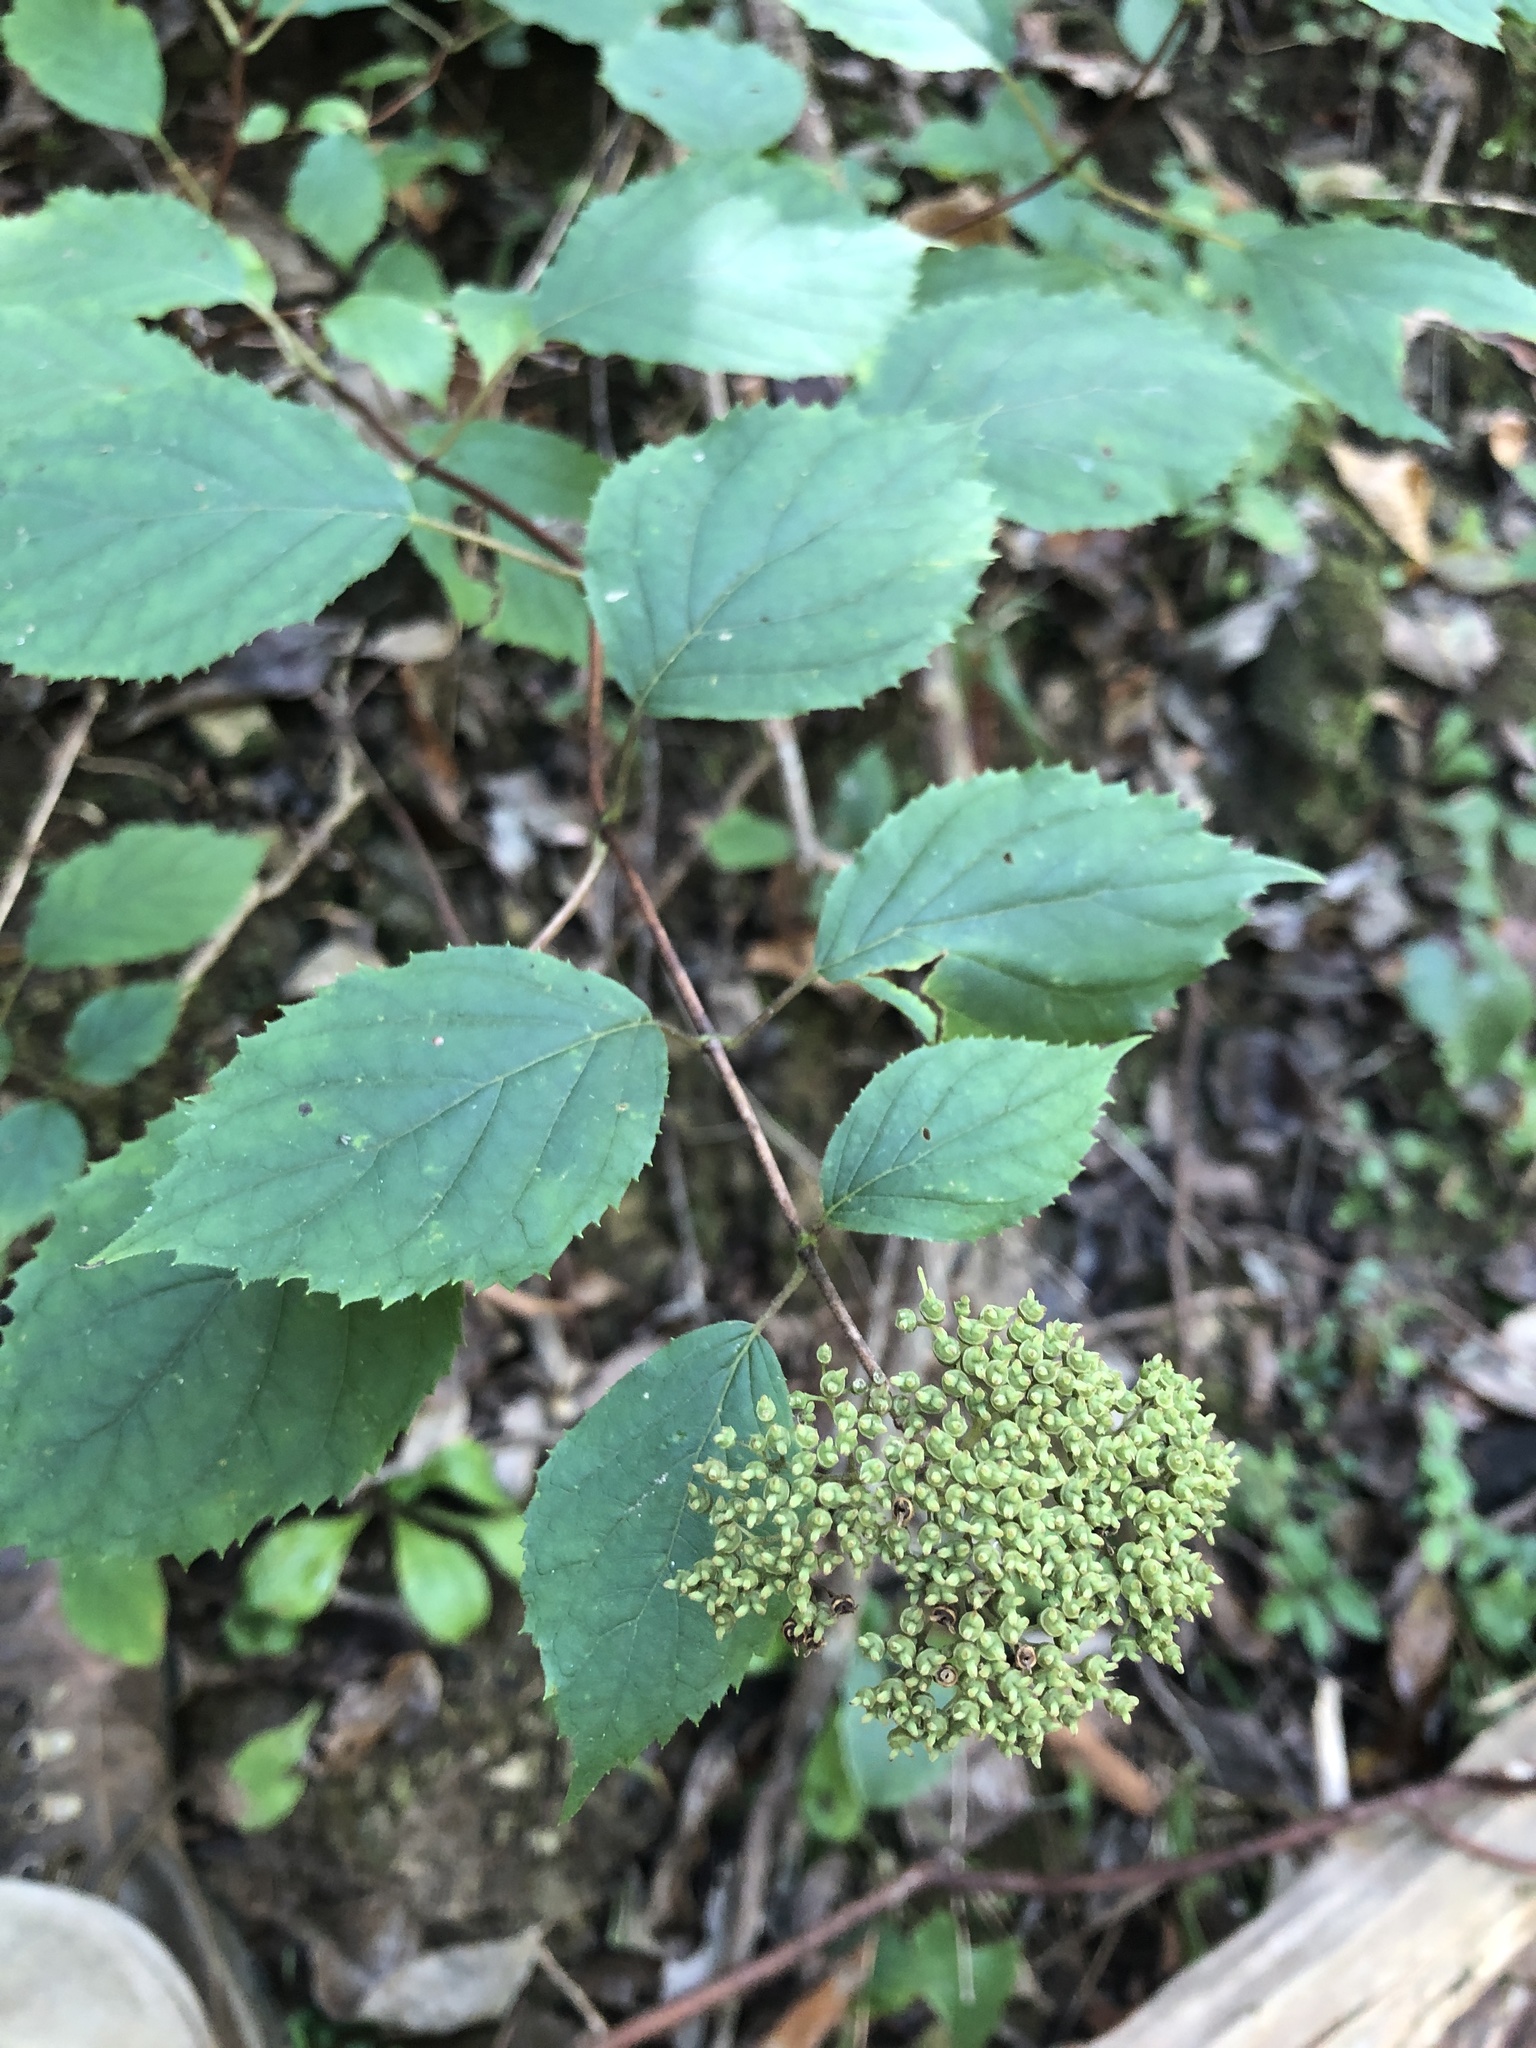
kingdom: Plantae
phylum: Tracheophyta
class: Magnoliopsida
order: Cornales
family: Hydrangeaceae
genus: Hydrangea
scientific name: Hydrangea arborescens
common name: Sevenbark
